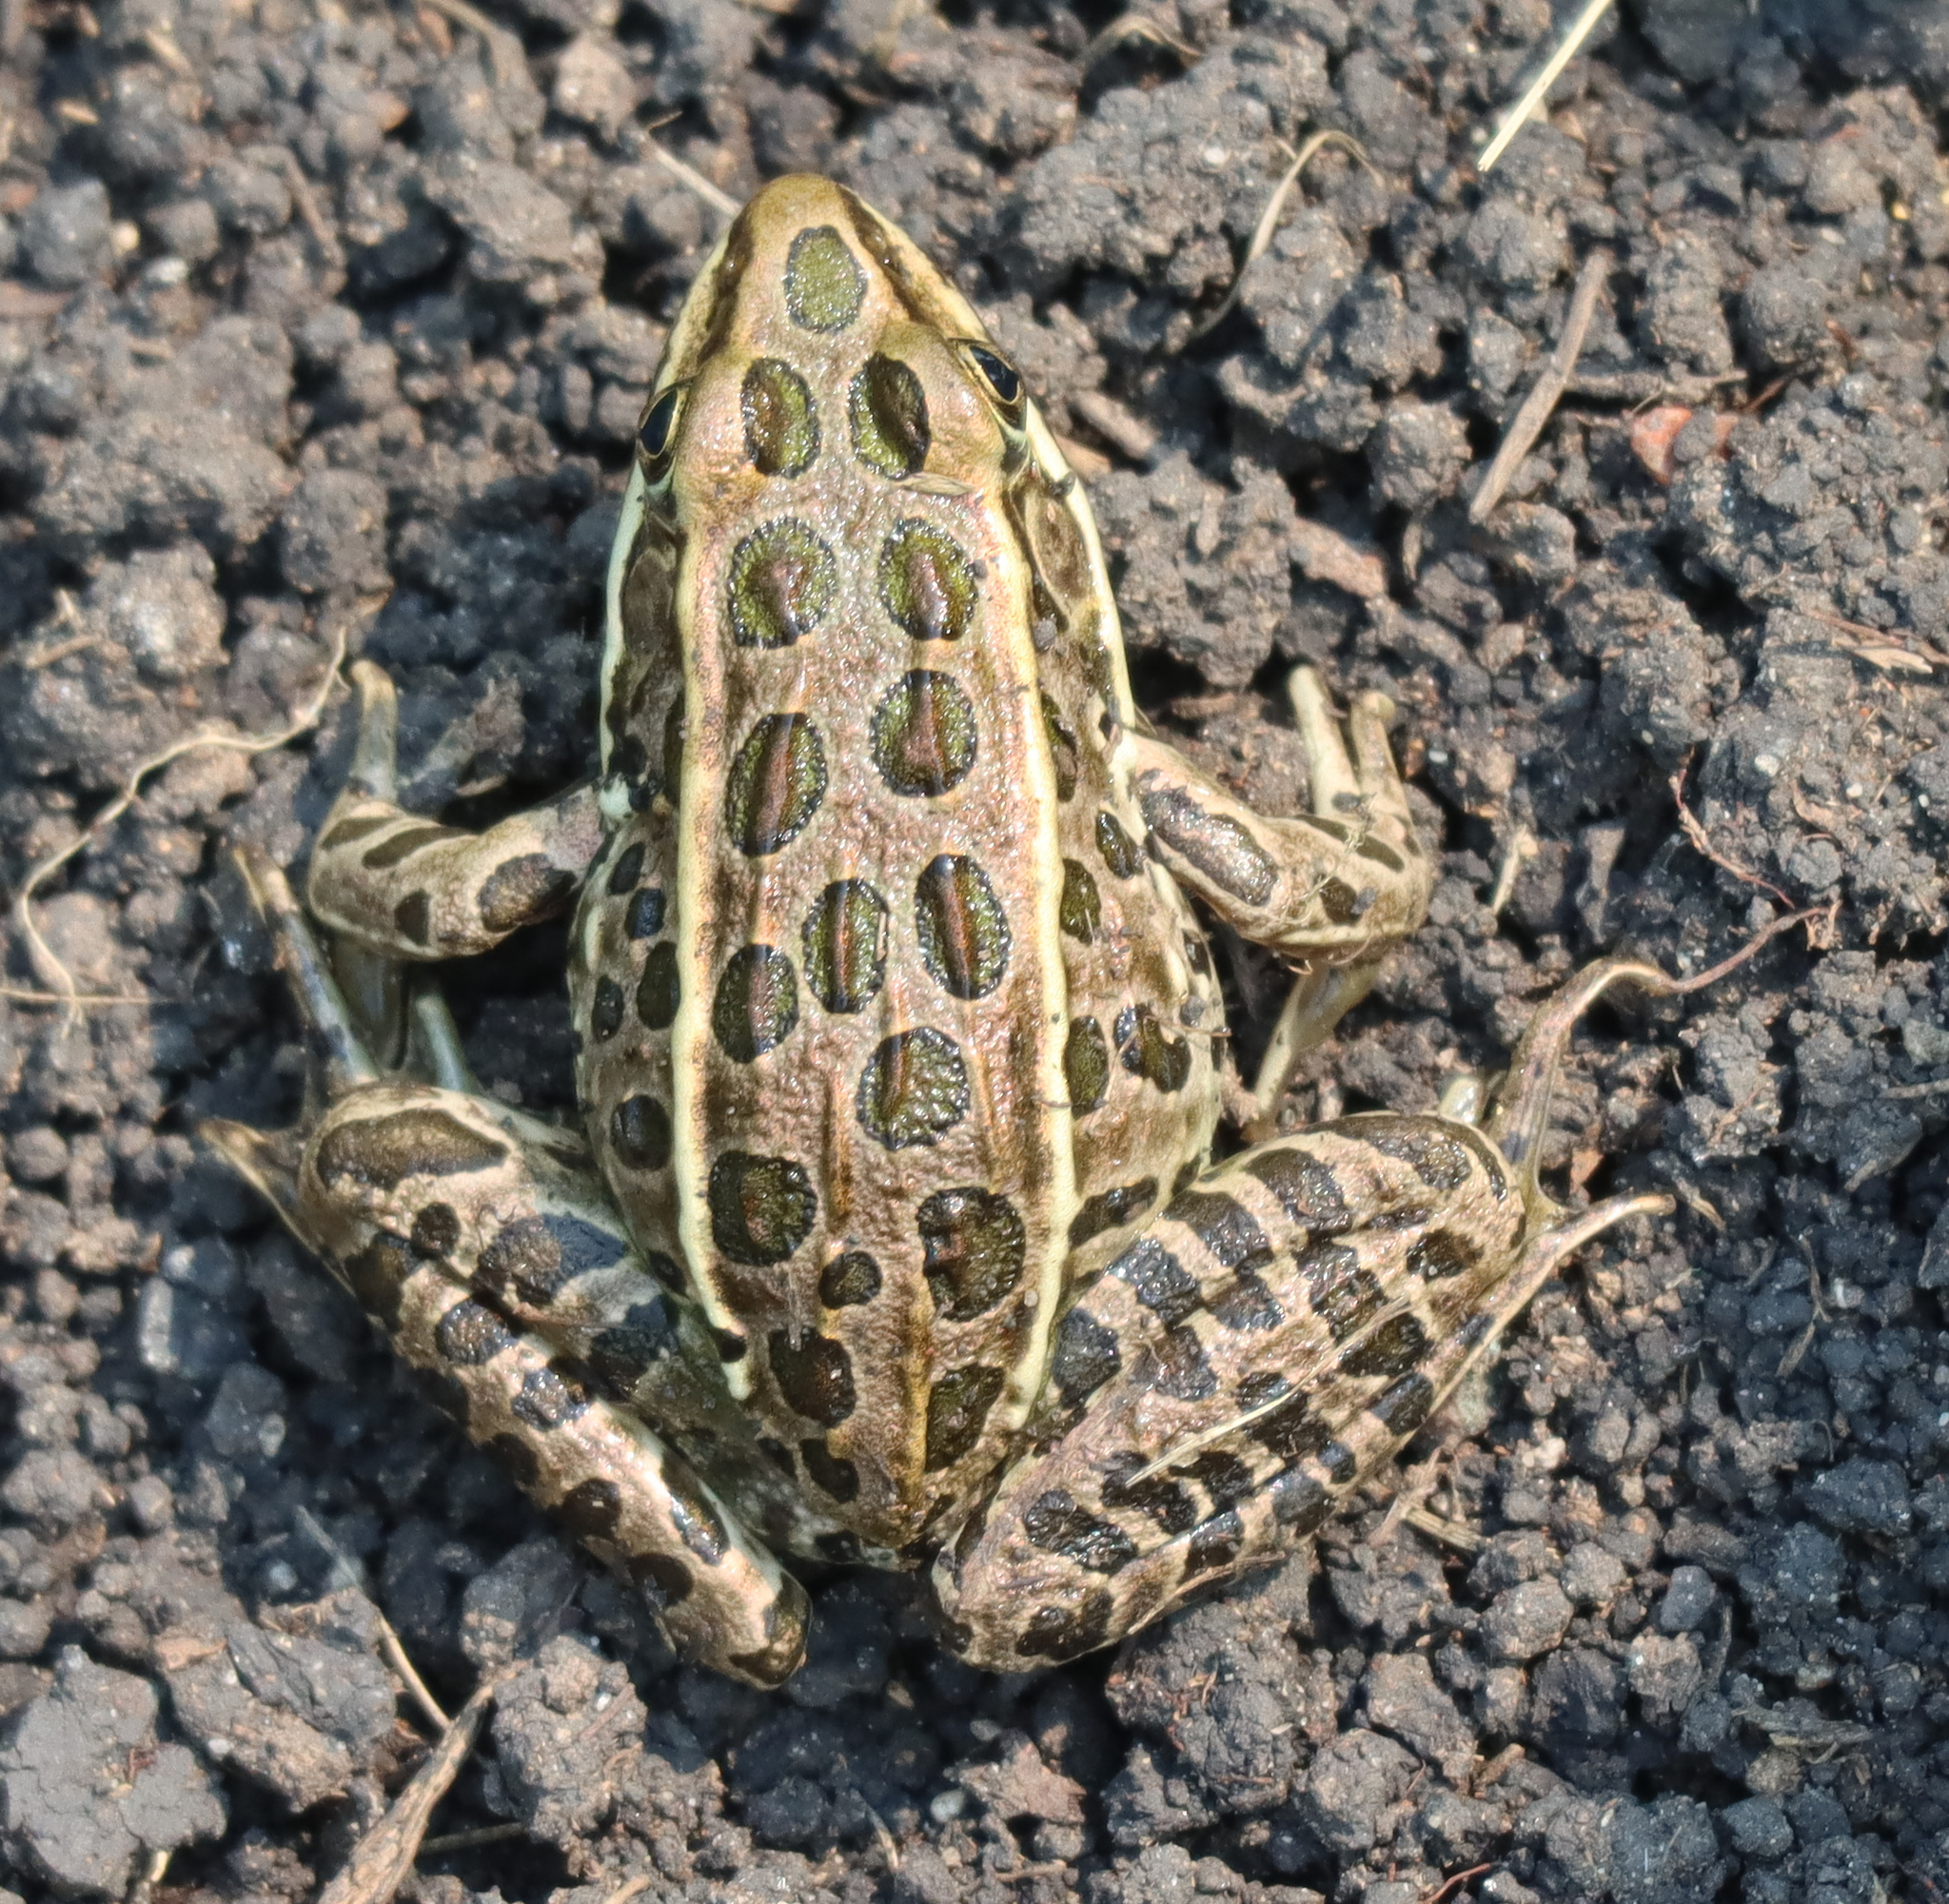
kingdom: Animalia
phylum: Chordata
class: Amphibia
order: Anura
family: Ranidae
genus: Lithobates
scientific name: Lithobates pipiens
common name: Northern leopard frog
